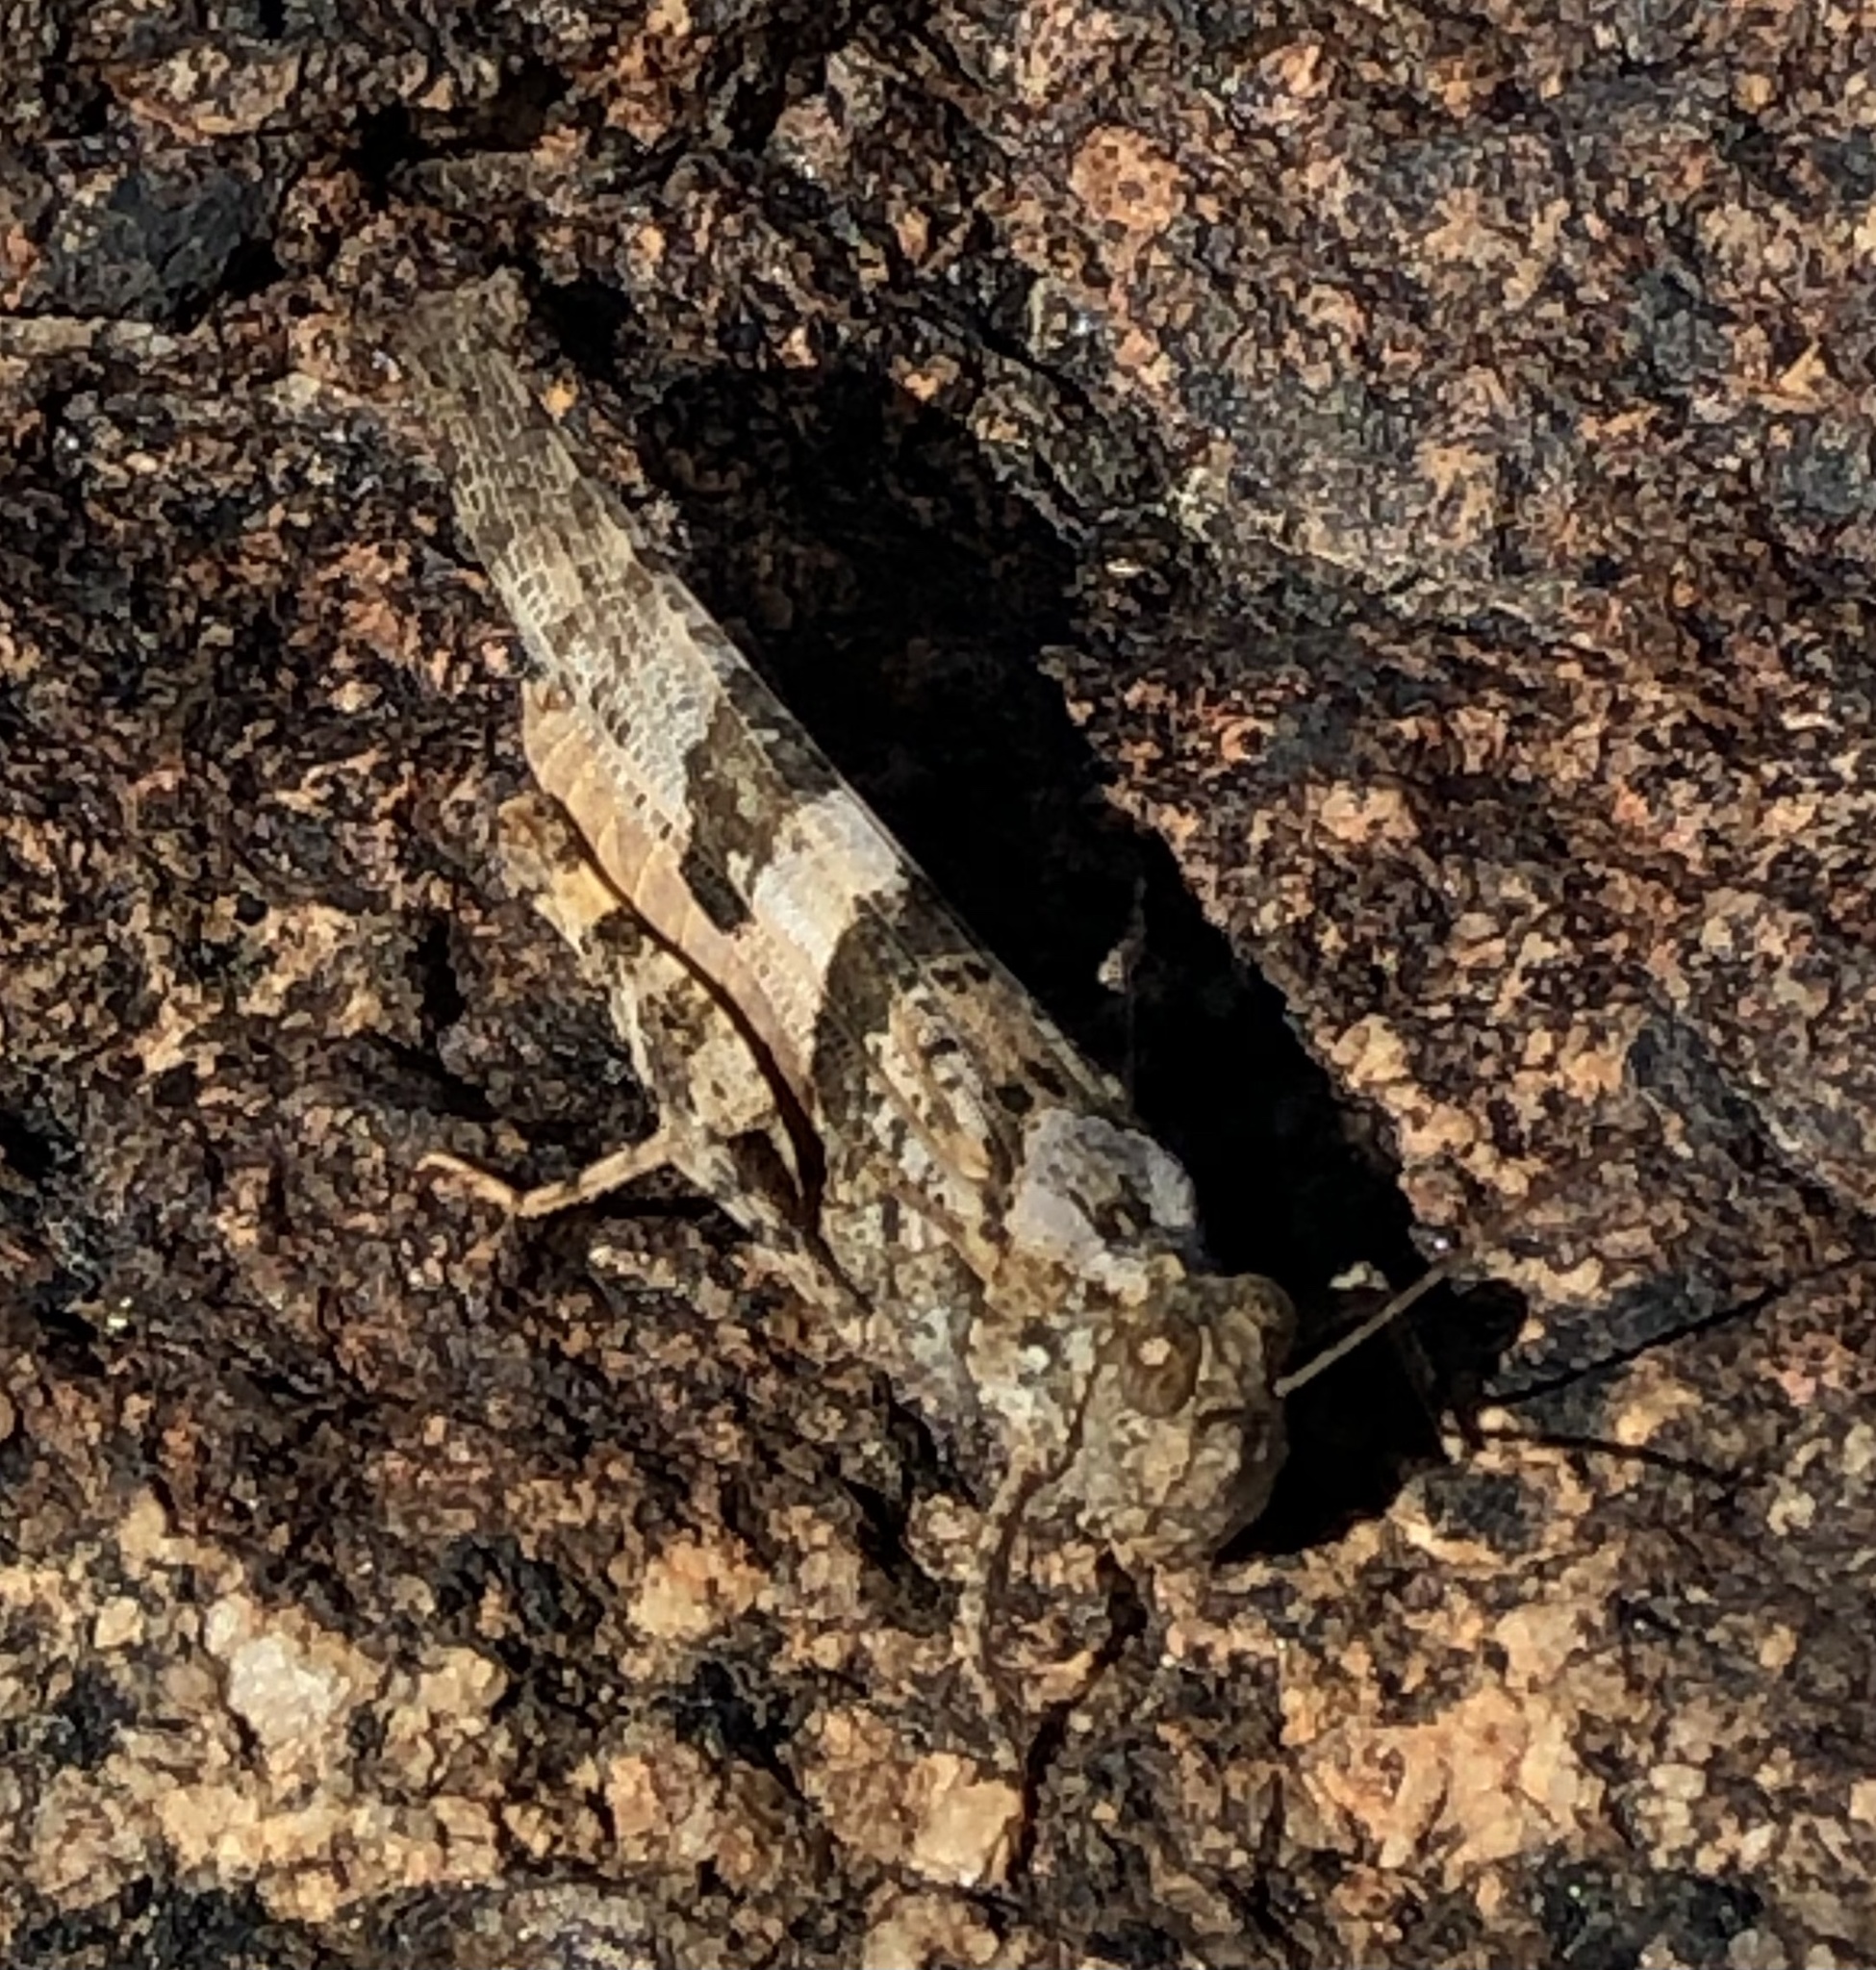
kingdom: Animalia
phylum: Arthropoda
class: Insecta
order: Orthoptera
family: Acrididae
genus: Trimerotropis
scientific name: Trimerotropis pallidipennis
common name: Pallid-winged grasshopper
